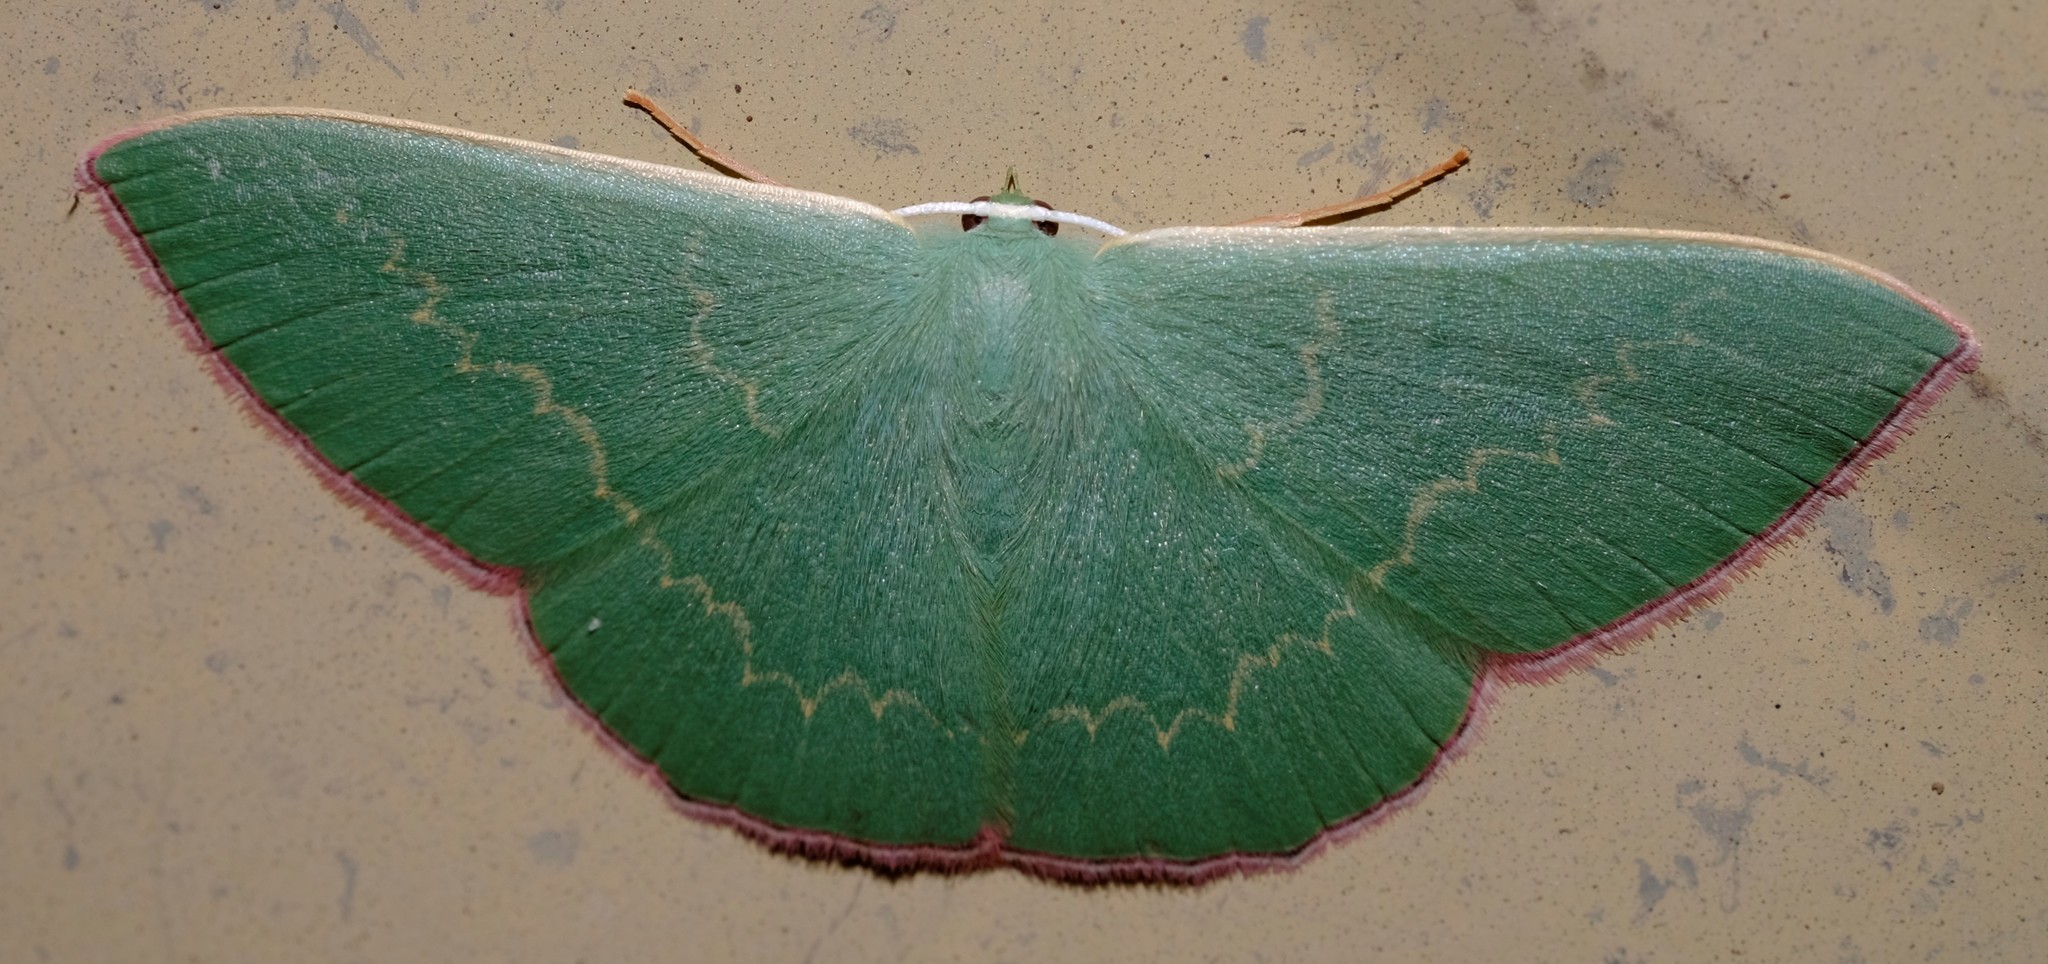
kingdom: Animalia
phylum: Arthropoda
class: Insecta
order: Lepidoptera
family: Geometridae
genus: Prasinocyma
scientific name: Prasinocyma semicrocea
